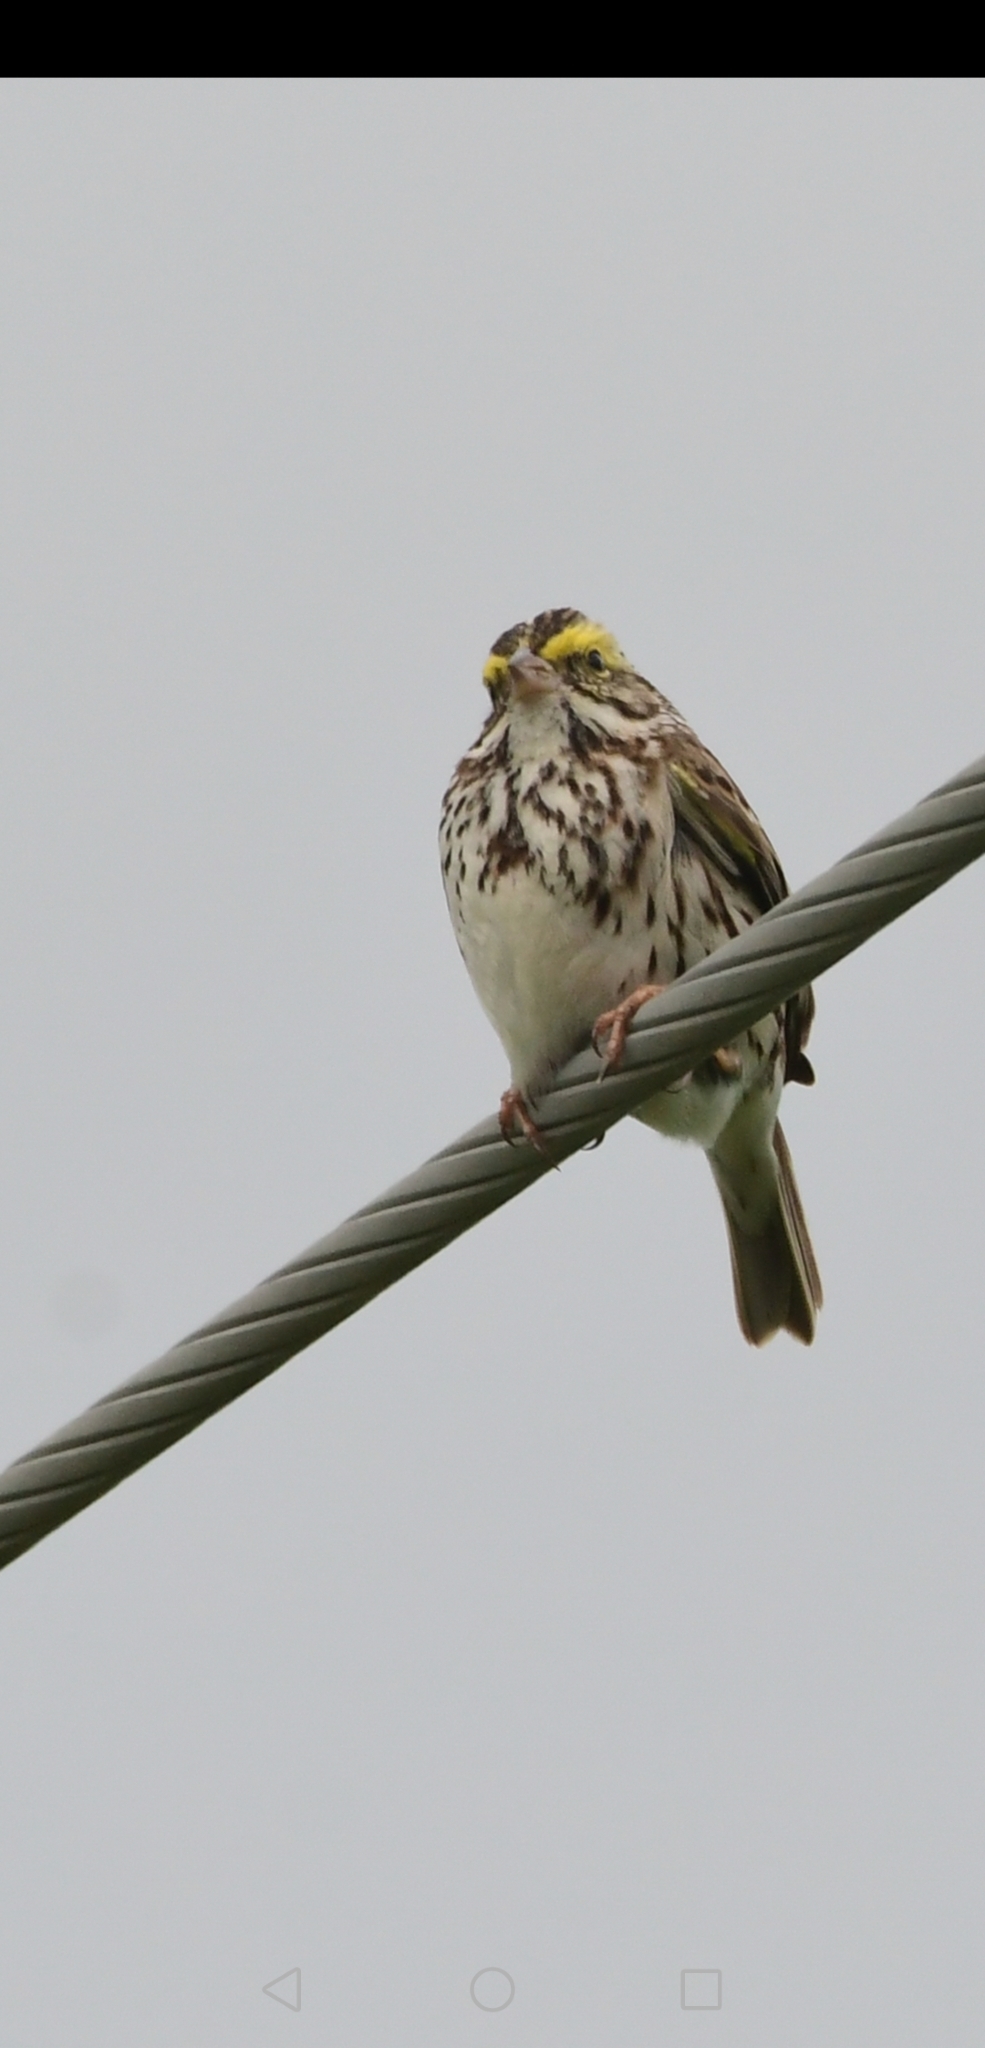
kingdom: Animalia
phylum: Chordata
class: Aves
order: Passeriformes
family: Passerellidae
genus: Passerculus
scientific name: Passerculus sandwichensis
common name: Savannah sparrow
